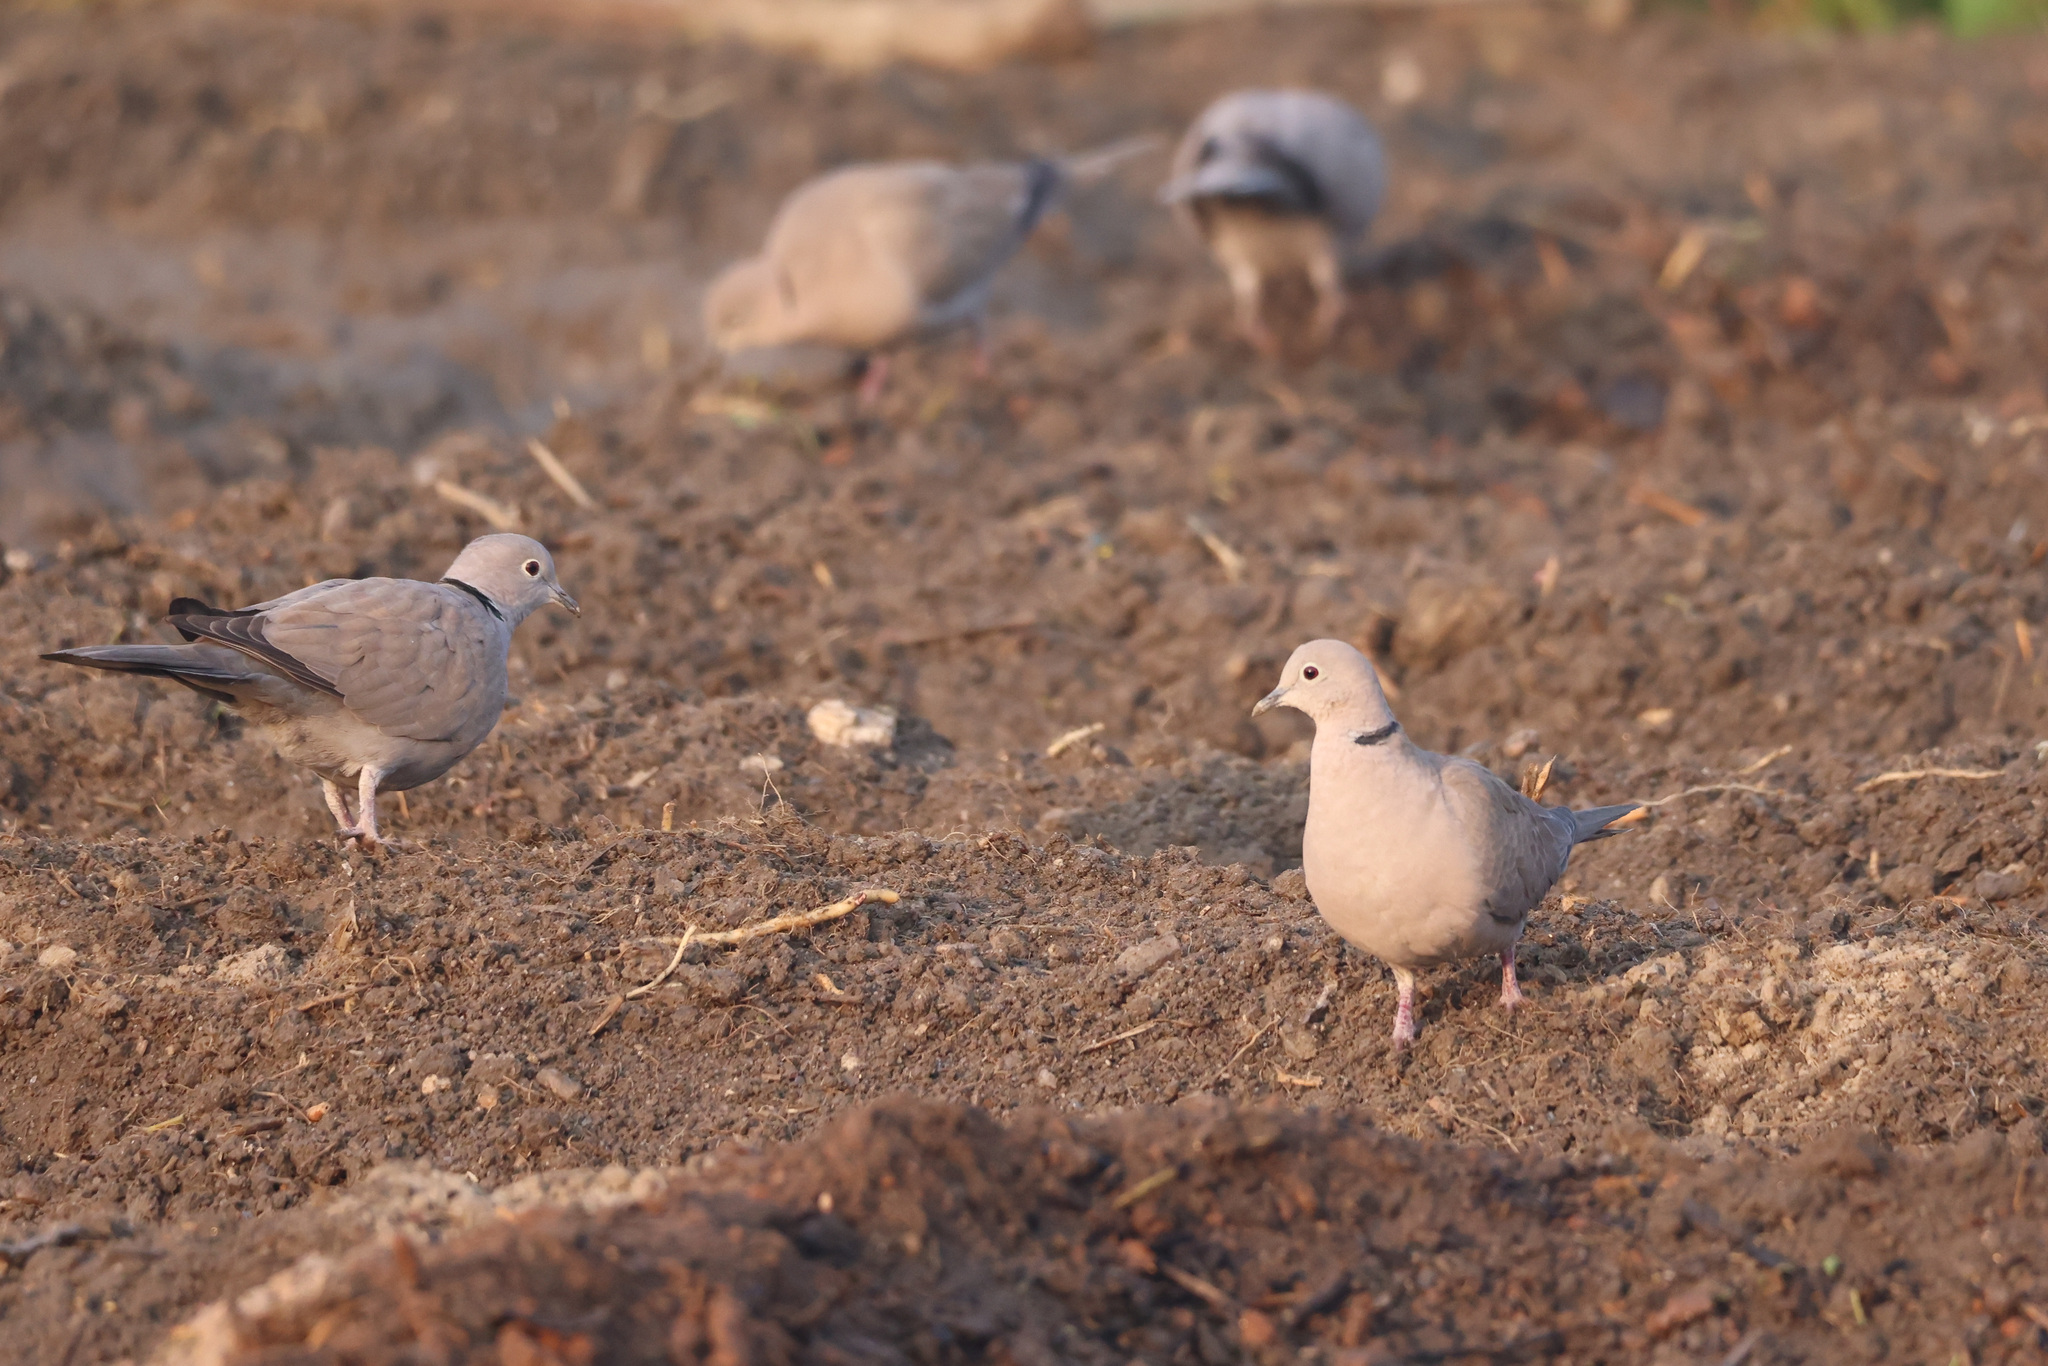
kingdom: Animalia
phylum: Chordata
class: Aves
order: Columbiformes
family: Columbidae
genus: Streptopelia
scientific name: Streptopelia decaocto
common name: Eurasian collared dove
